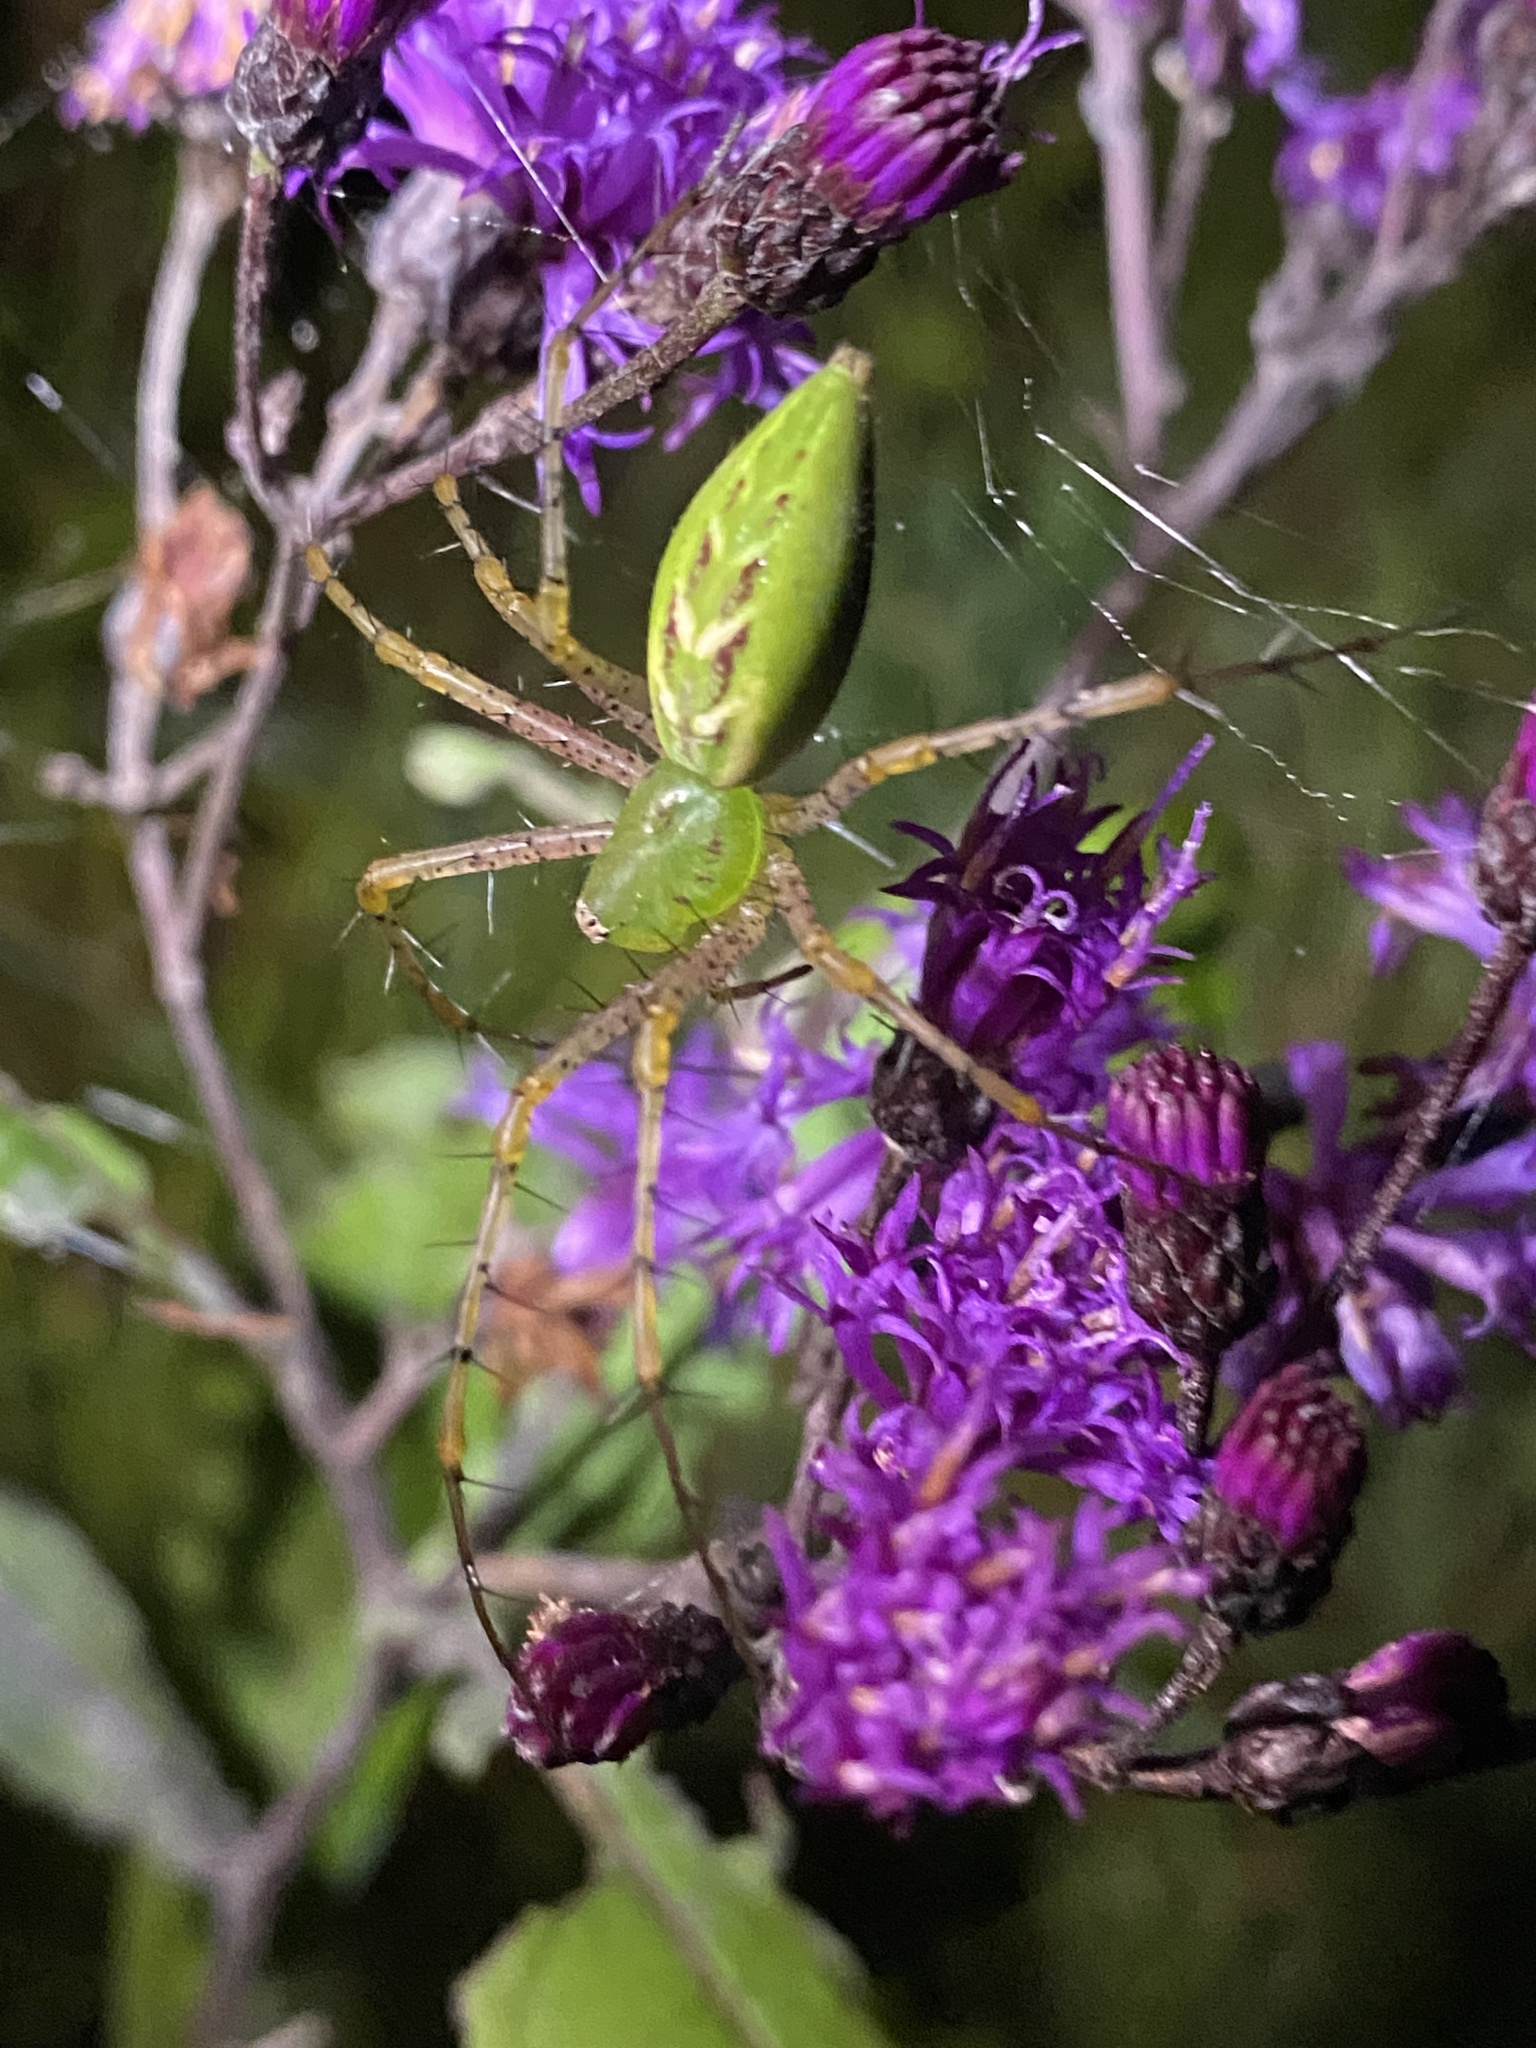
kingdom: Animalia
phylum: Arthropoda
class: Arachnida
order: Araneae
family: Oxyopidae
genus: Peucetia
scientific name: Peucetia viridans
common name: Lynx spiders
